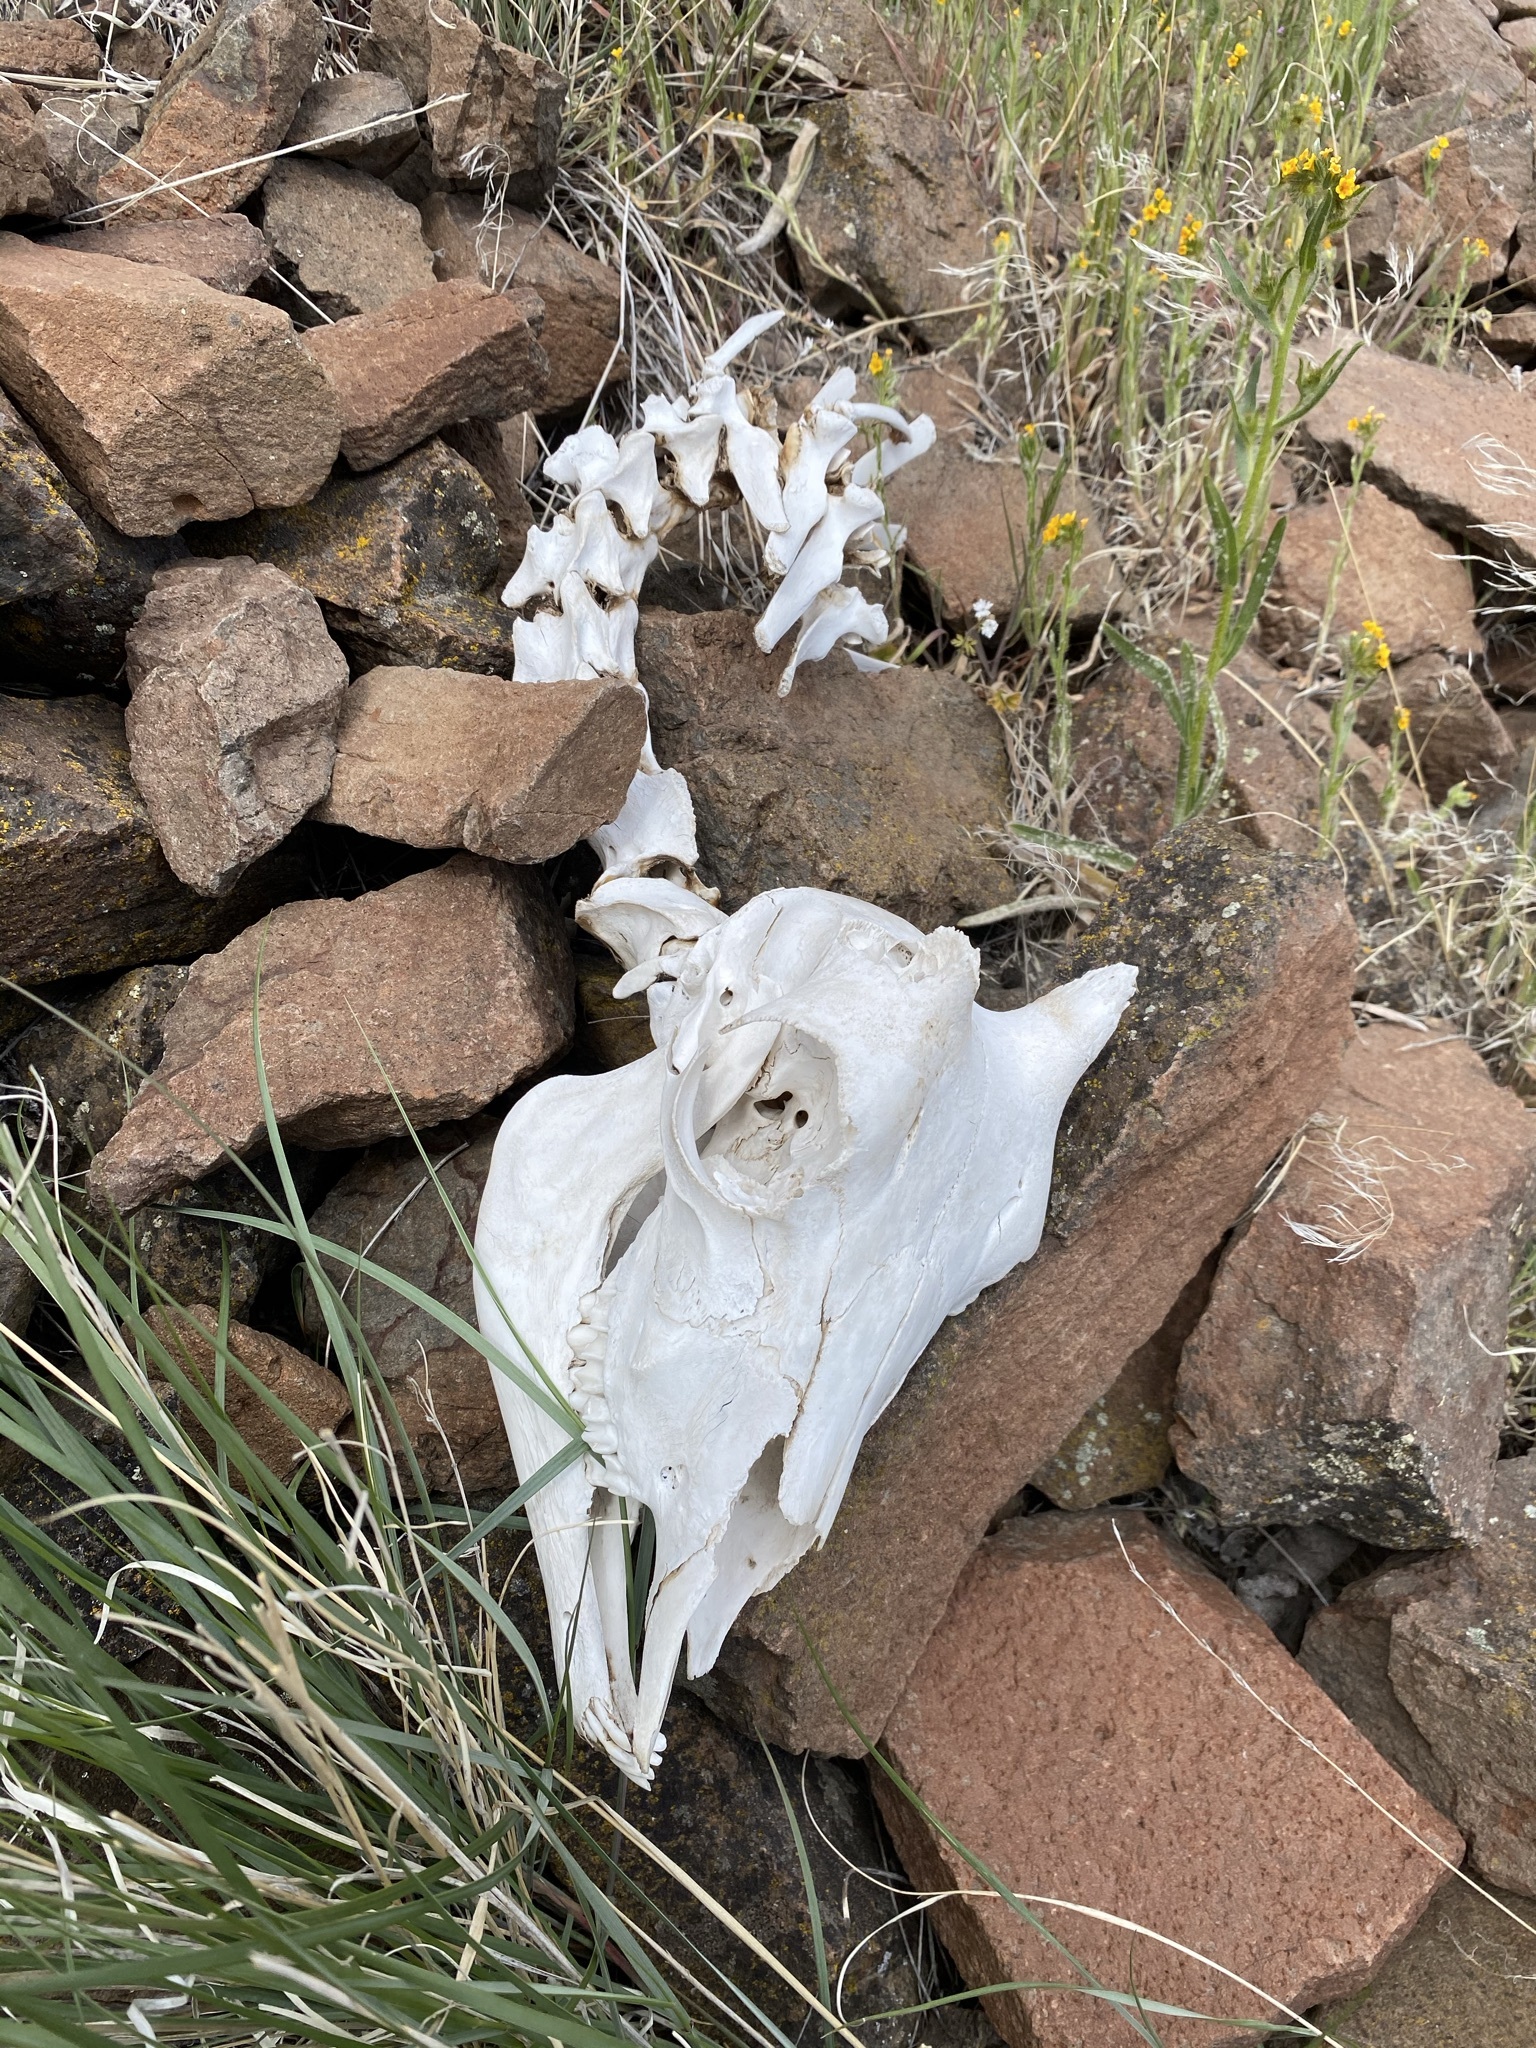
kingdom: Animalia
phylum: Chordata
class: Mammalia
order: Artiodactyla
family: Bovidae
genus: Ovis
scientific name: Ovis canadensis
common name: Bighorn sheep
